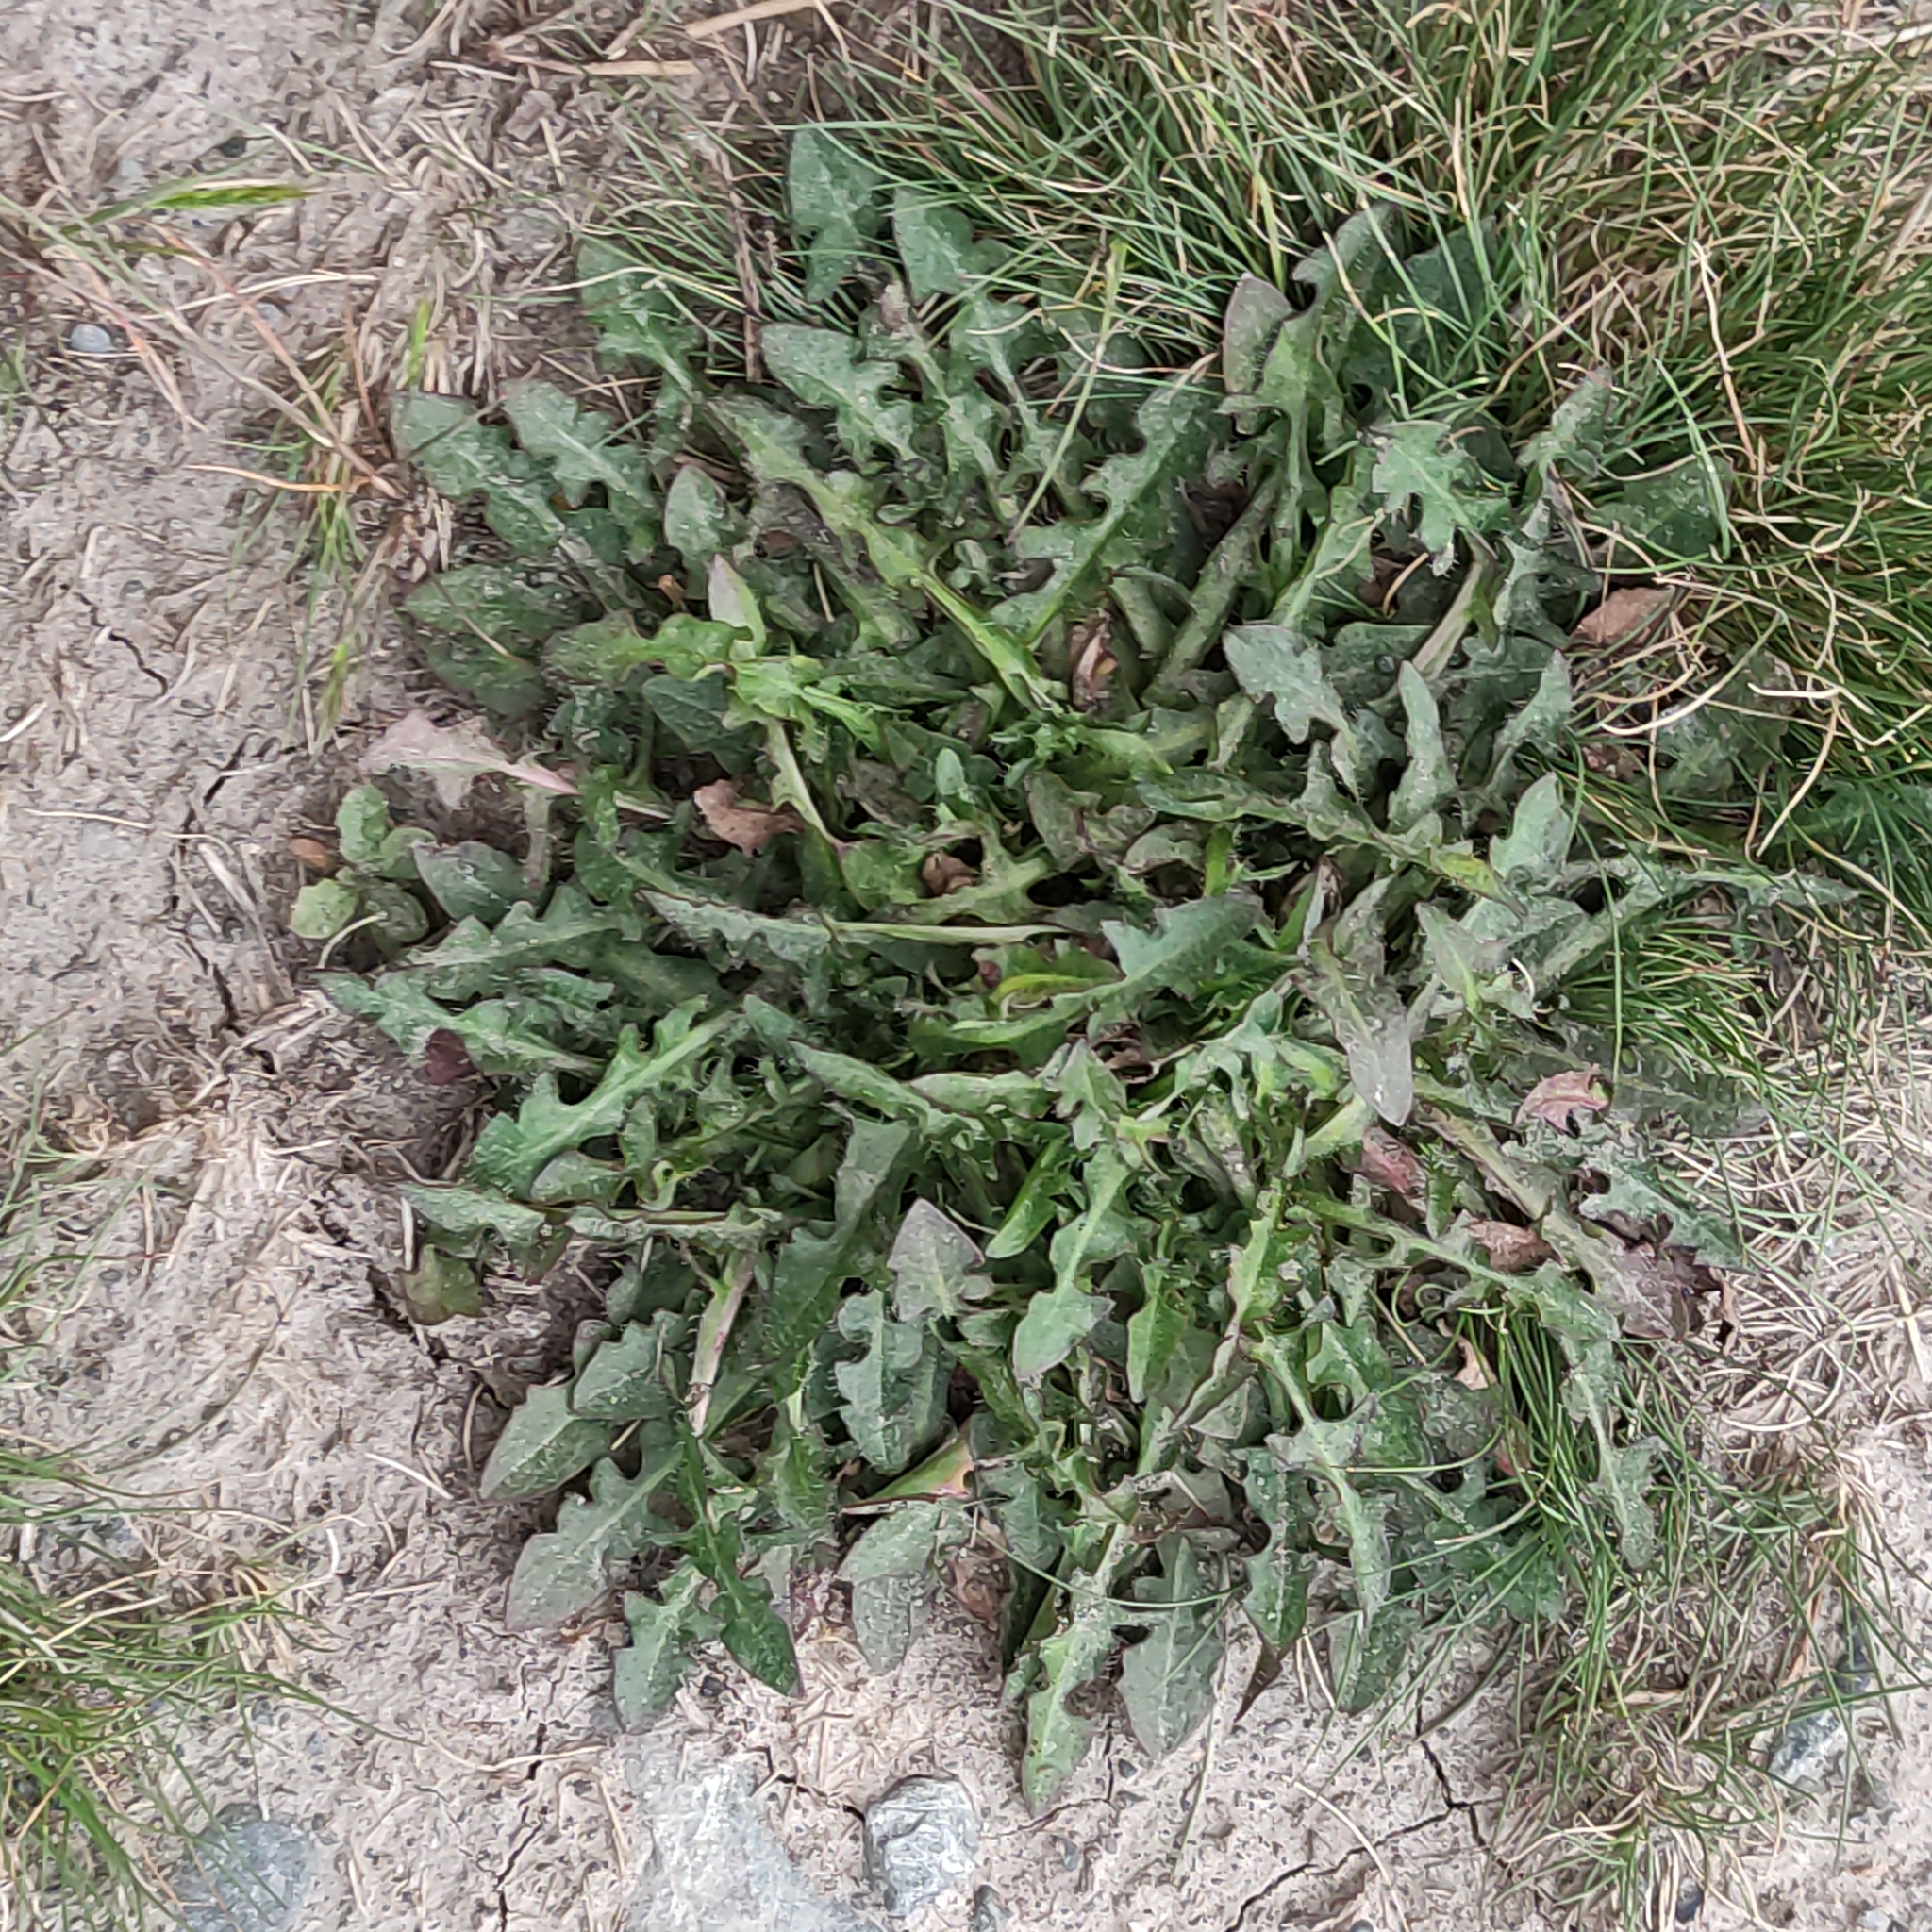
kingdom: Plantae
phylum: Tracheophyta
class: Magnoliopsida
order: Asterales
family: Asteraceae
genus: Hypochaeris
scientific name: Hypochaeris radicata
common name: Flatweed
